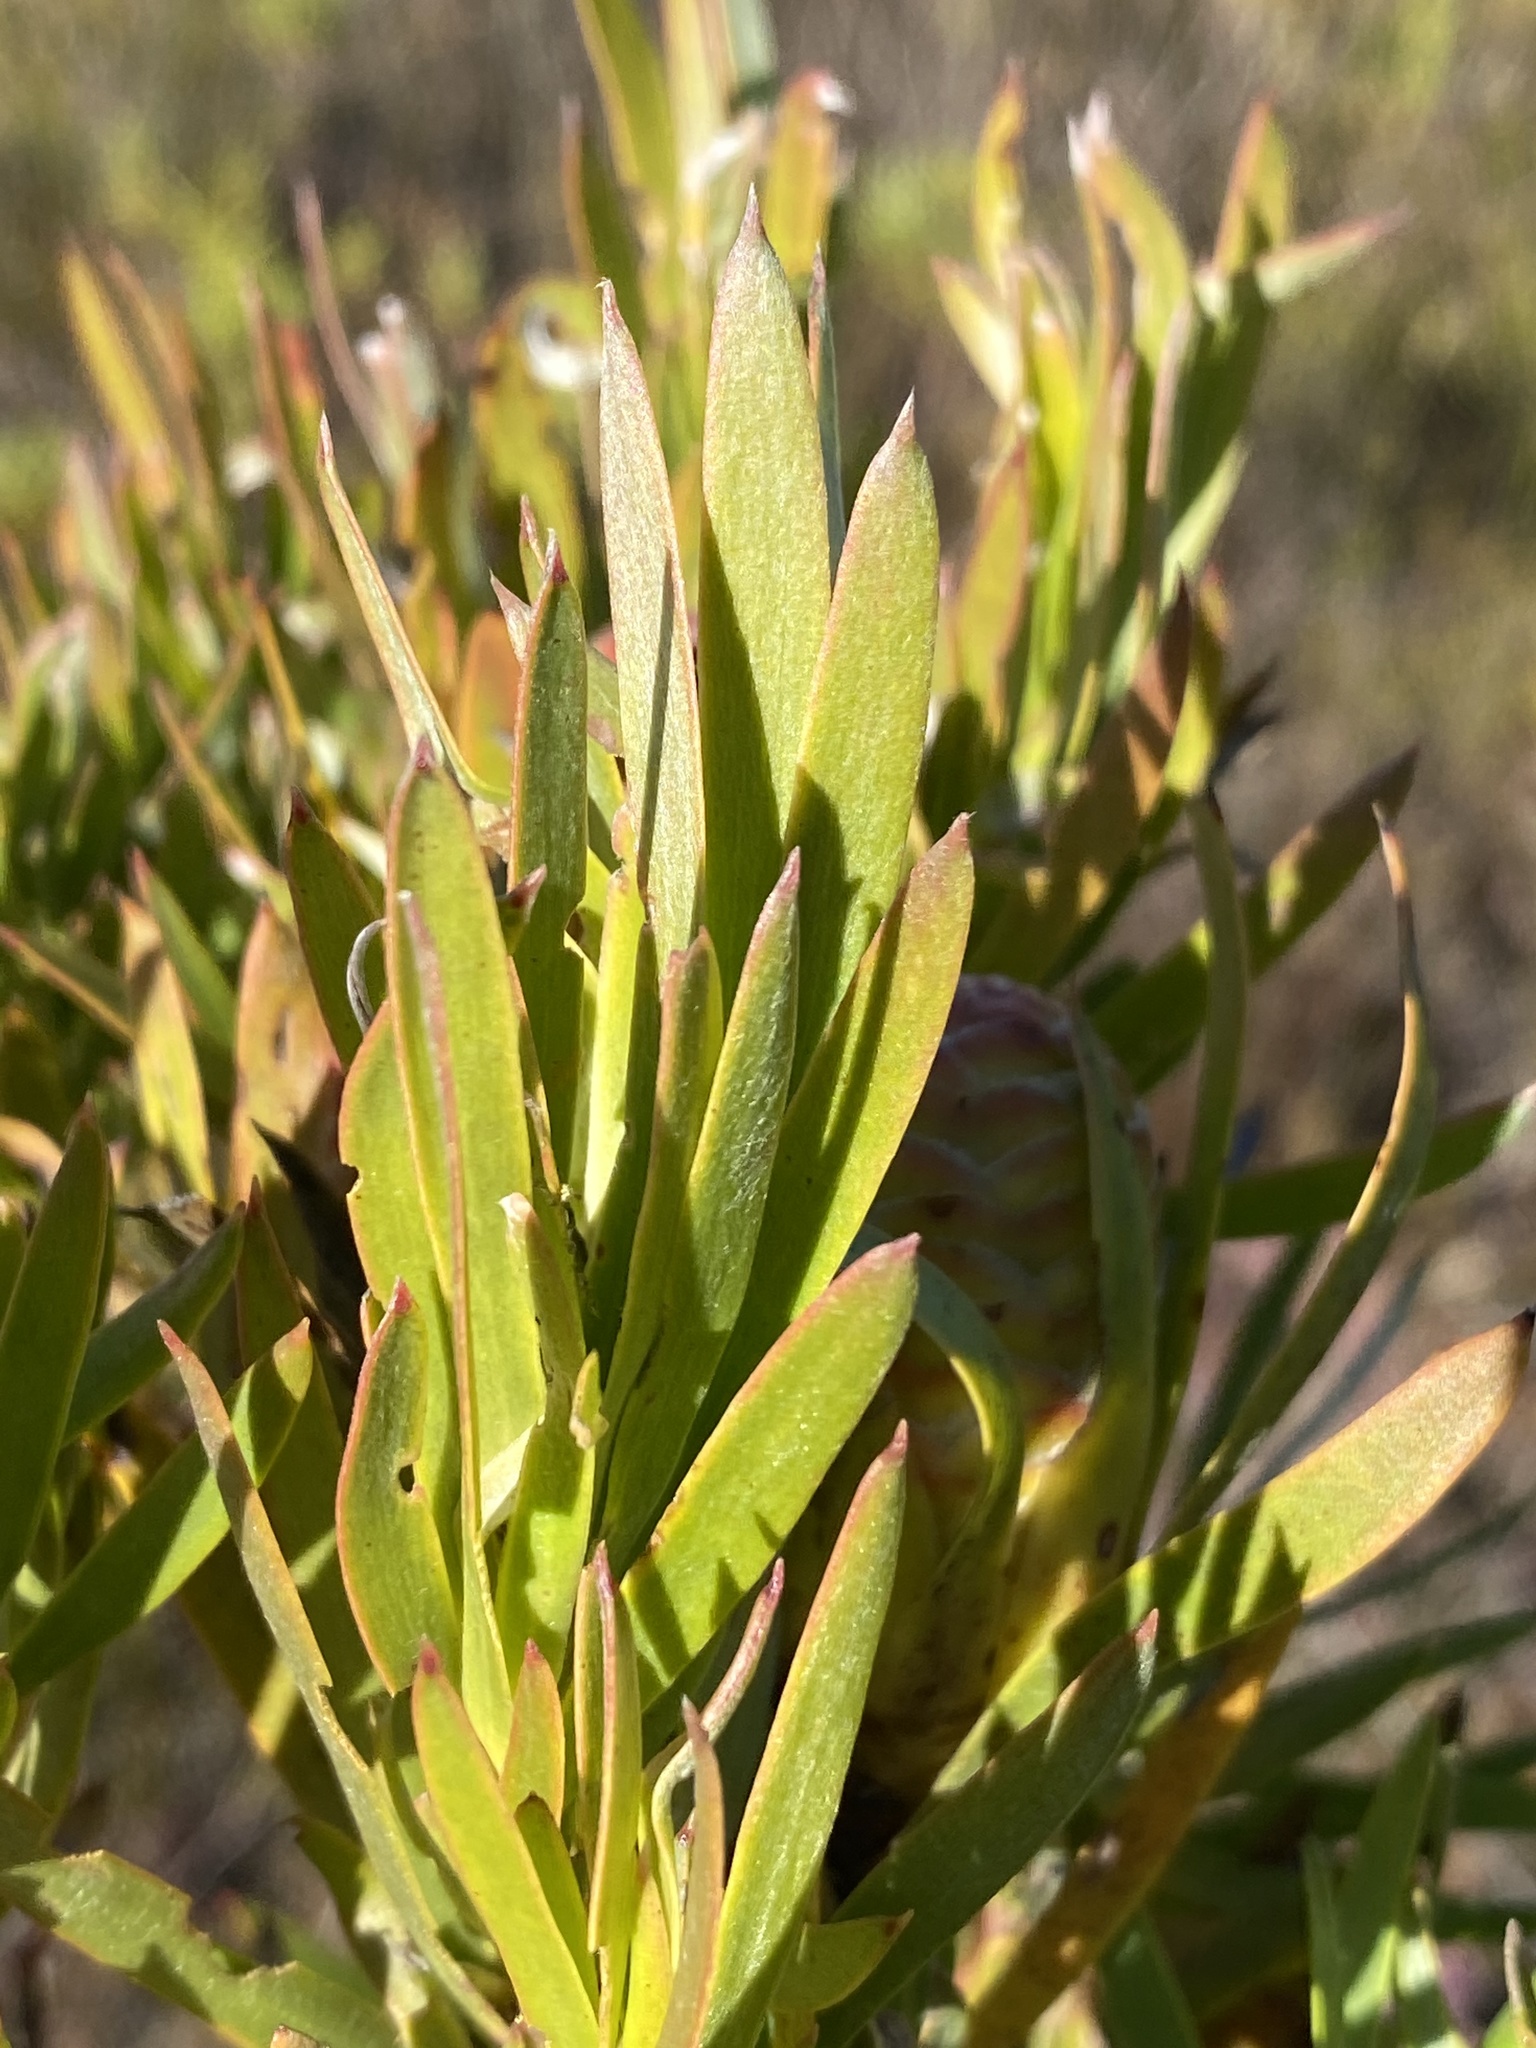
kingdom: Plantae
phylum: Tracheophyta
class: Magnoliopsida
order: Proteales
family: Proteaceae
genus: Leucadendron
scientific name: Leucadendron xanthoconus
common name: Sickle-leaf conebush
